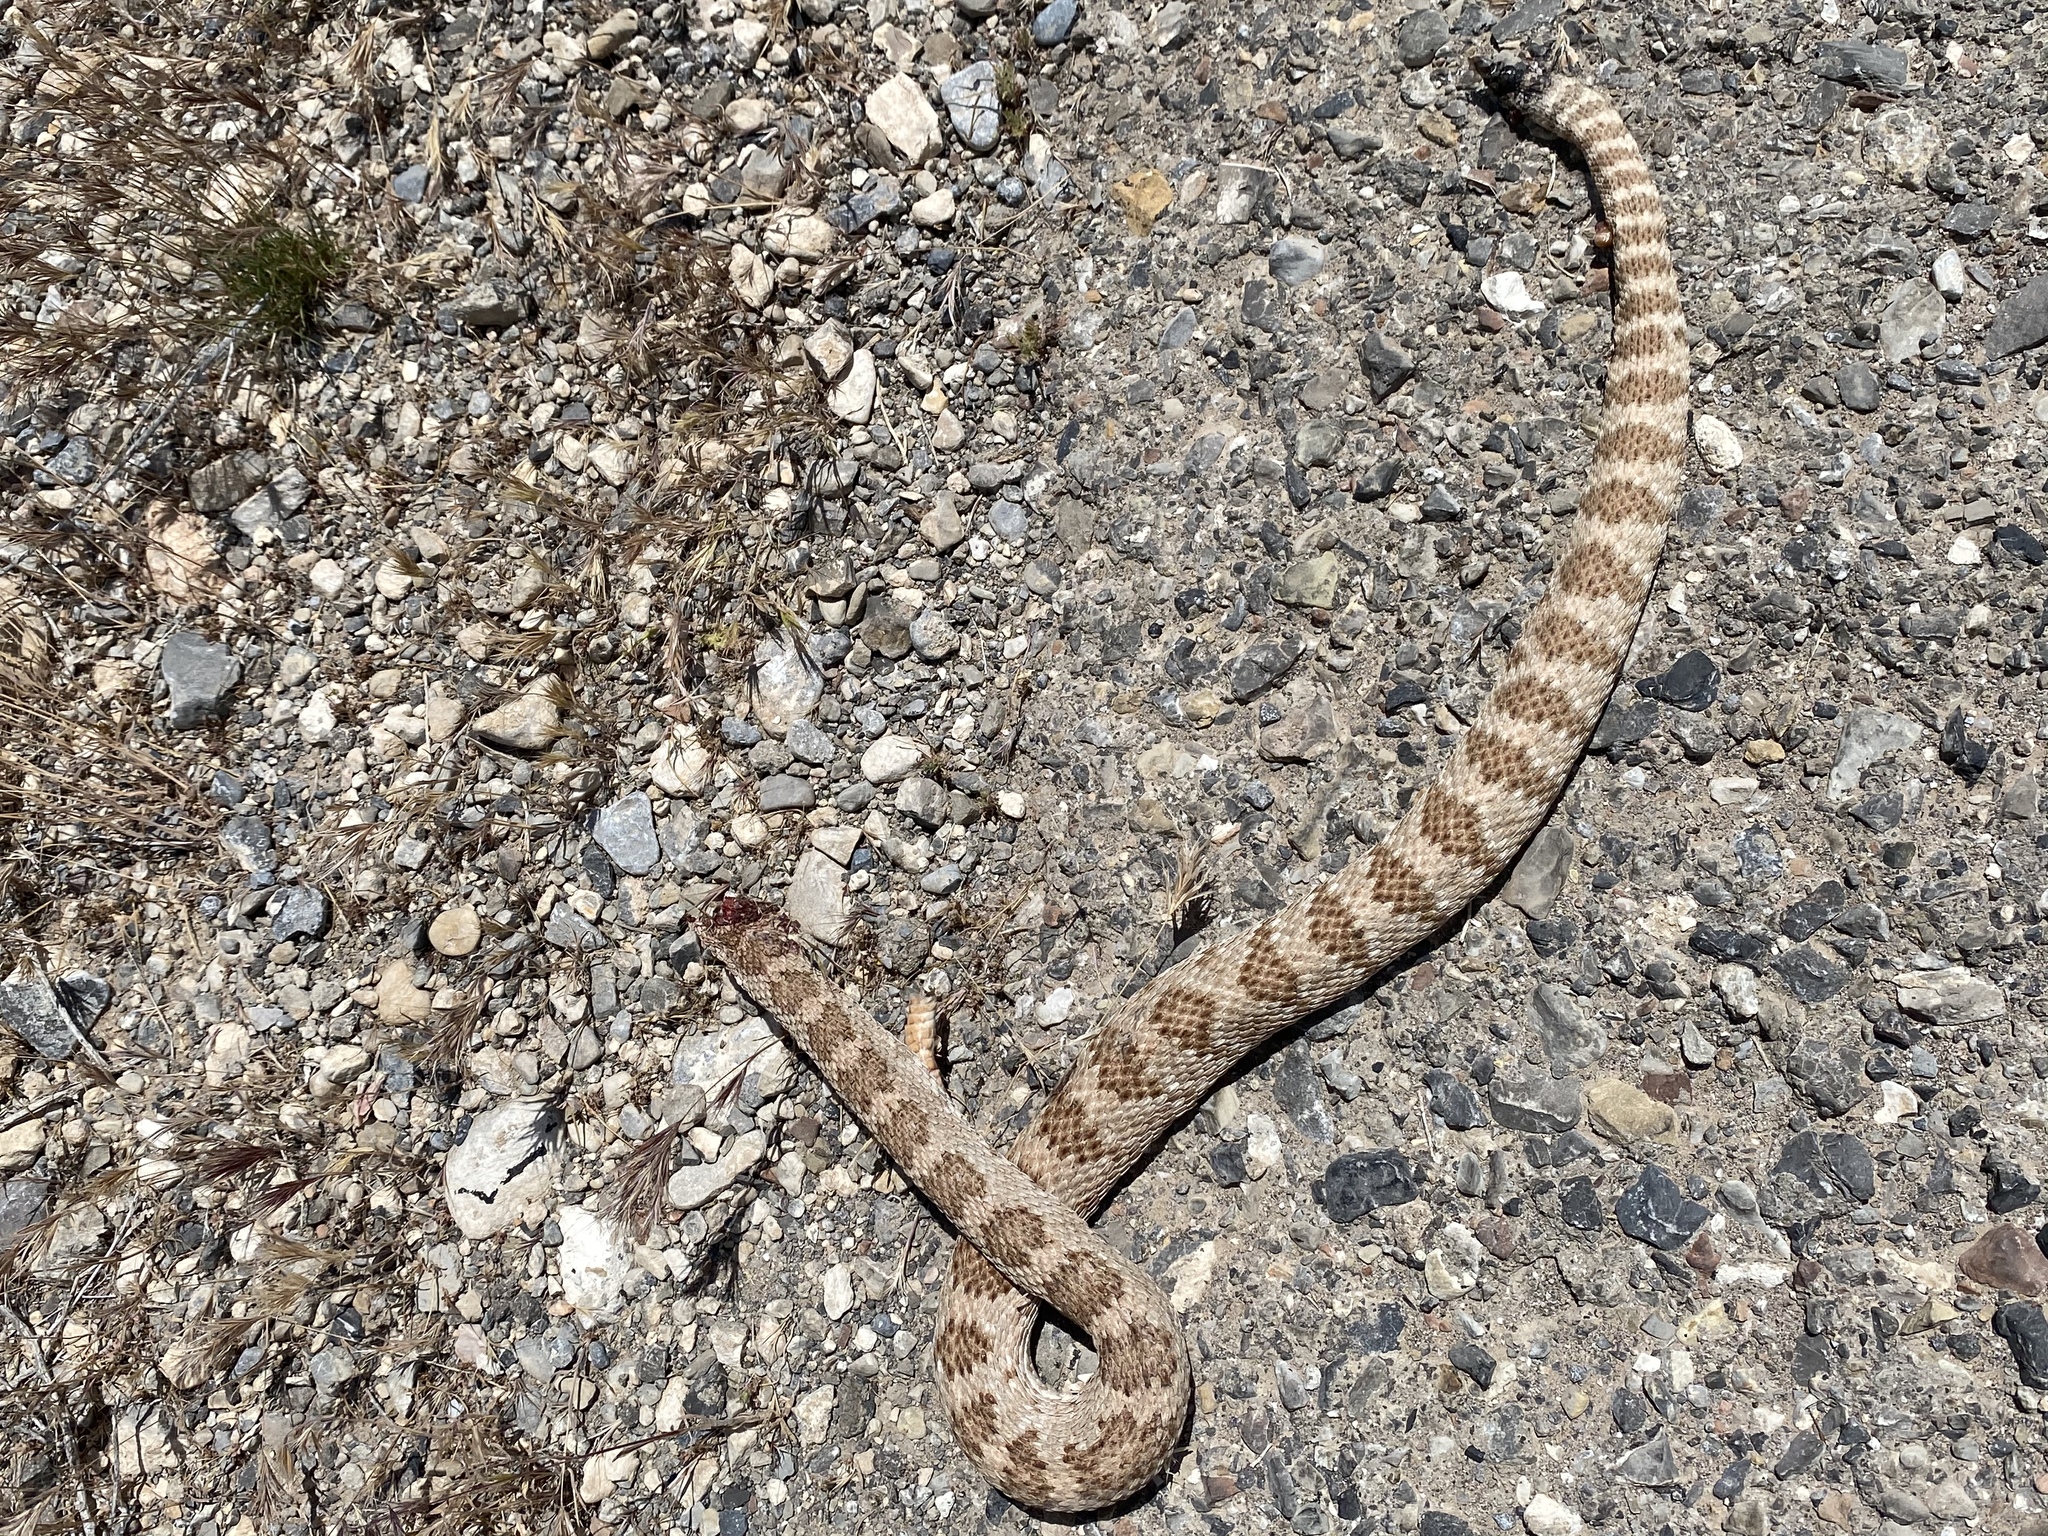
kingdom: Animalia
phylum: Chordata
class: Squamata
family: Viperidae
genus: Crotalus
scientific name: Crotalus stephensi
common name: Panamint rattlesnake
